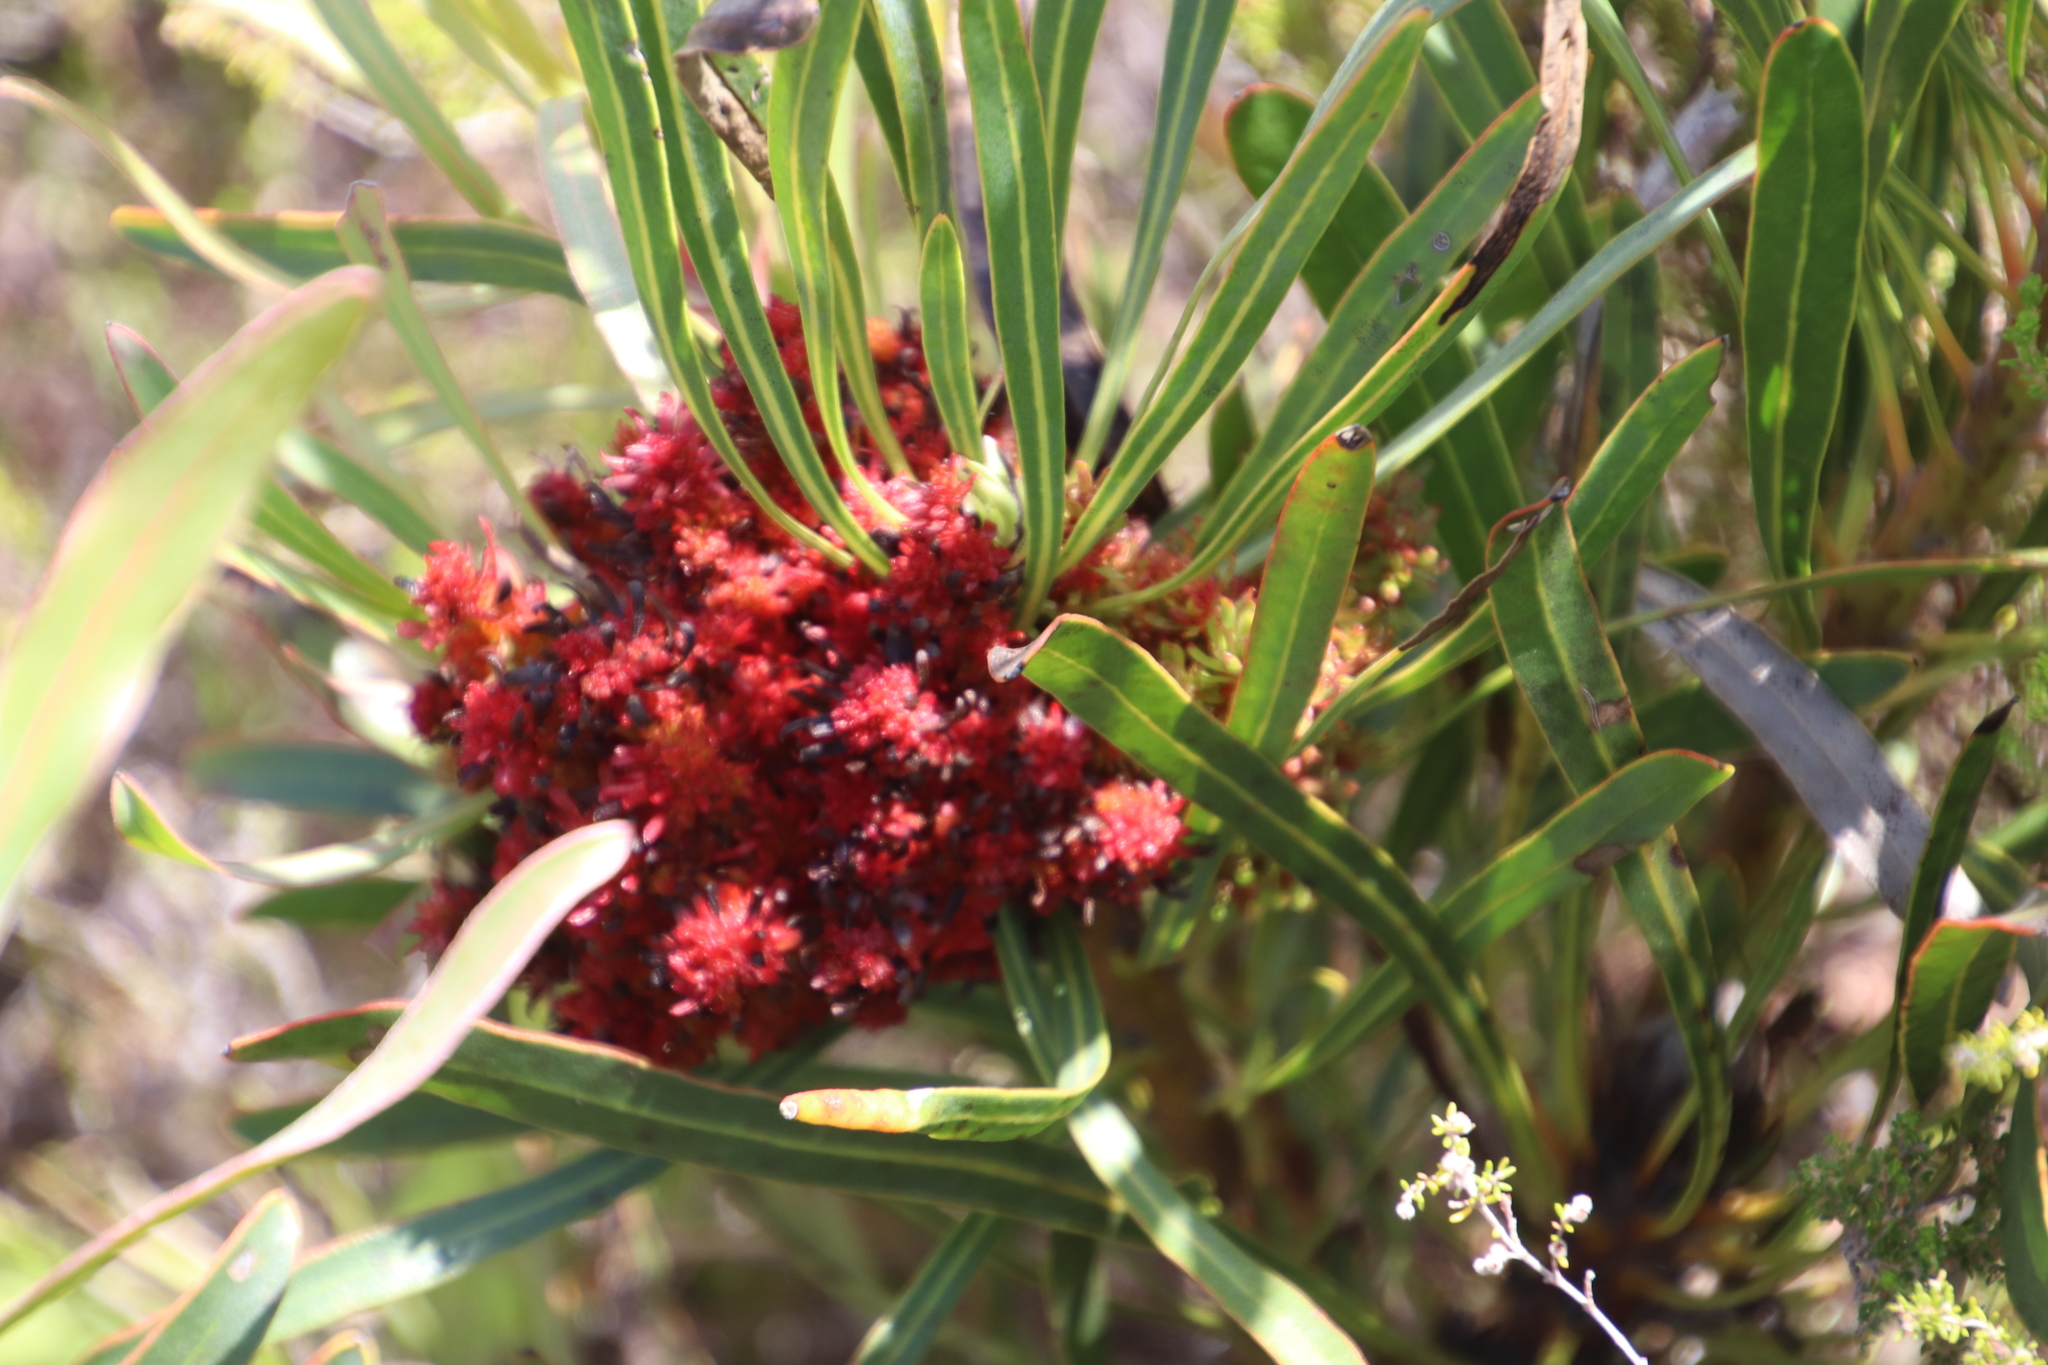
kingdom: Bacteria
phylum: Firmicutes
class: Bacilli
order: Acholeplasmatales
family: Acholeplasmataceae
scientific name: Acholeplasmataceae
